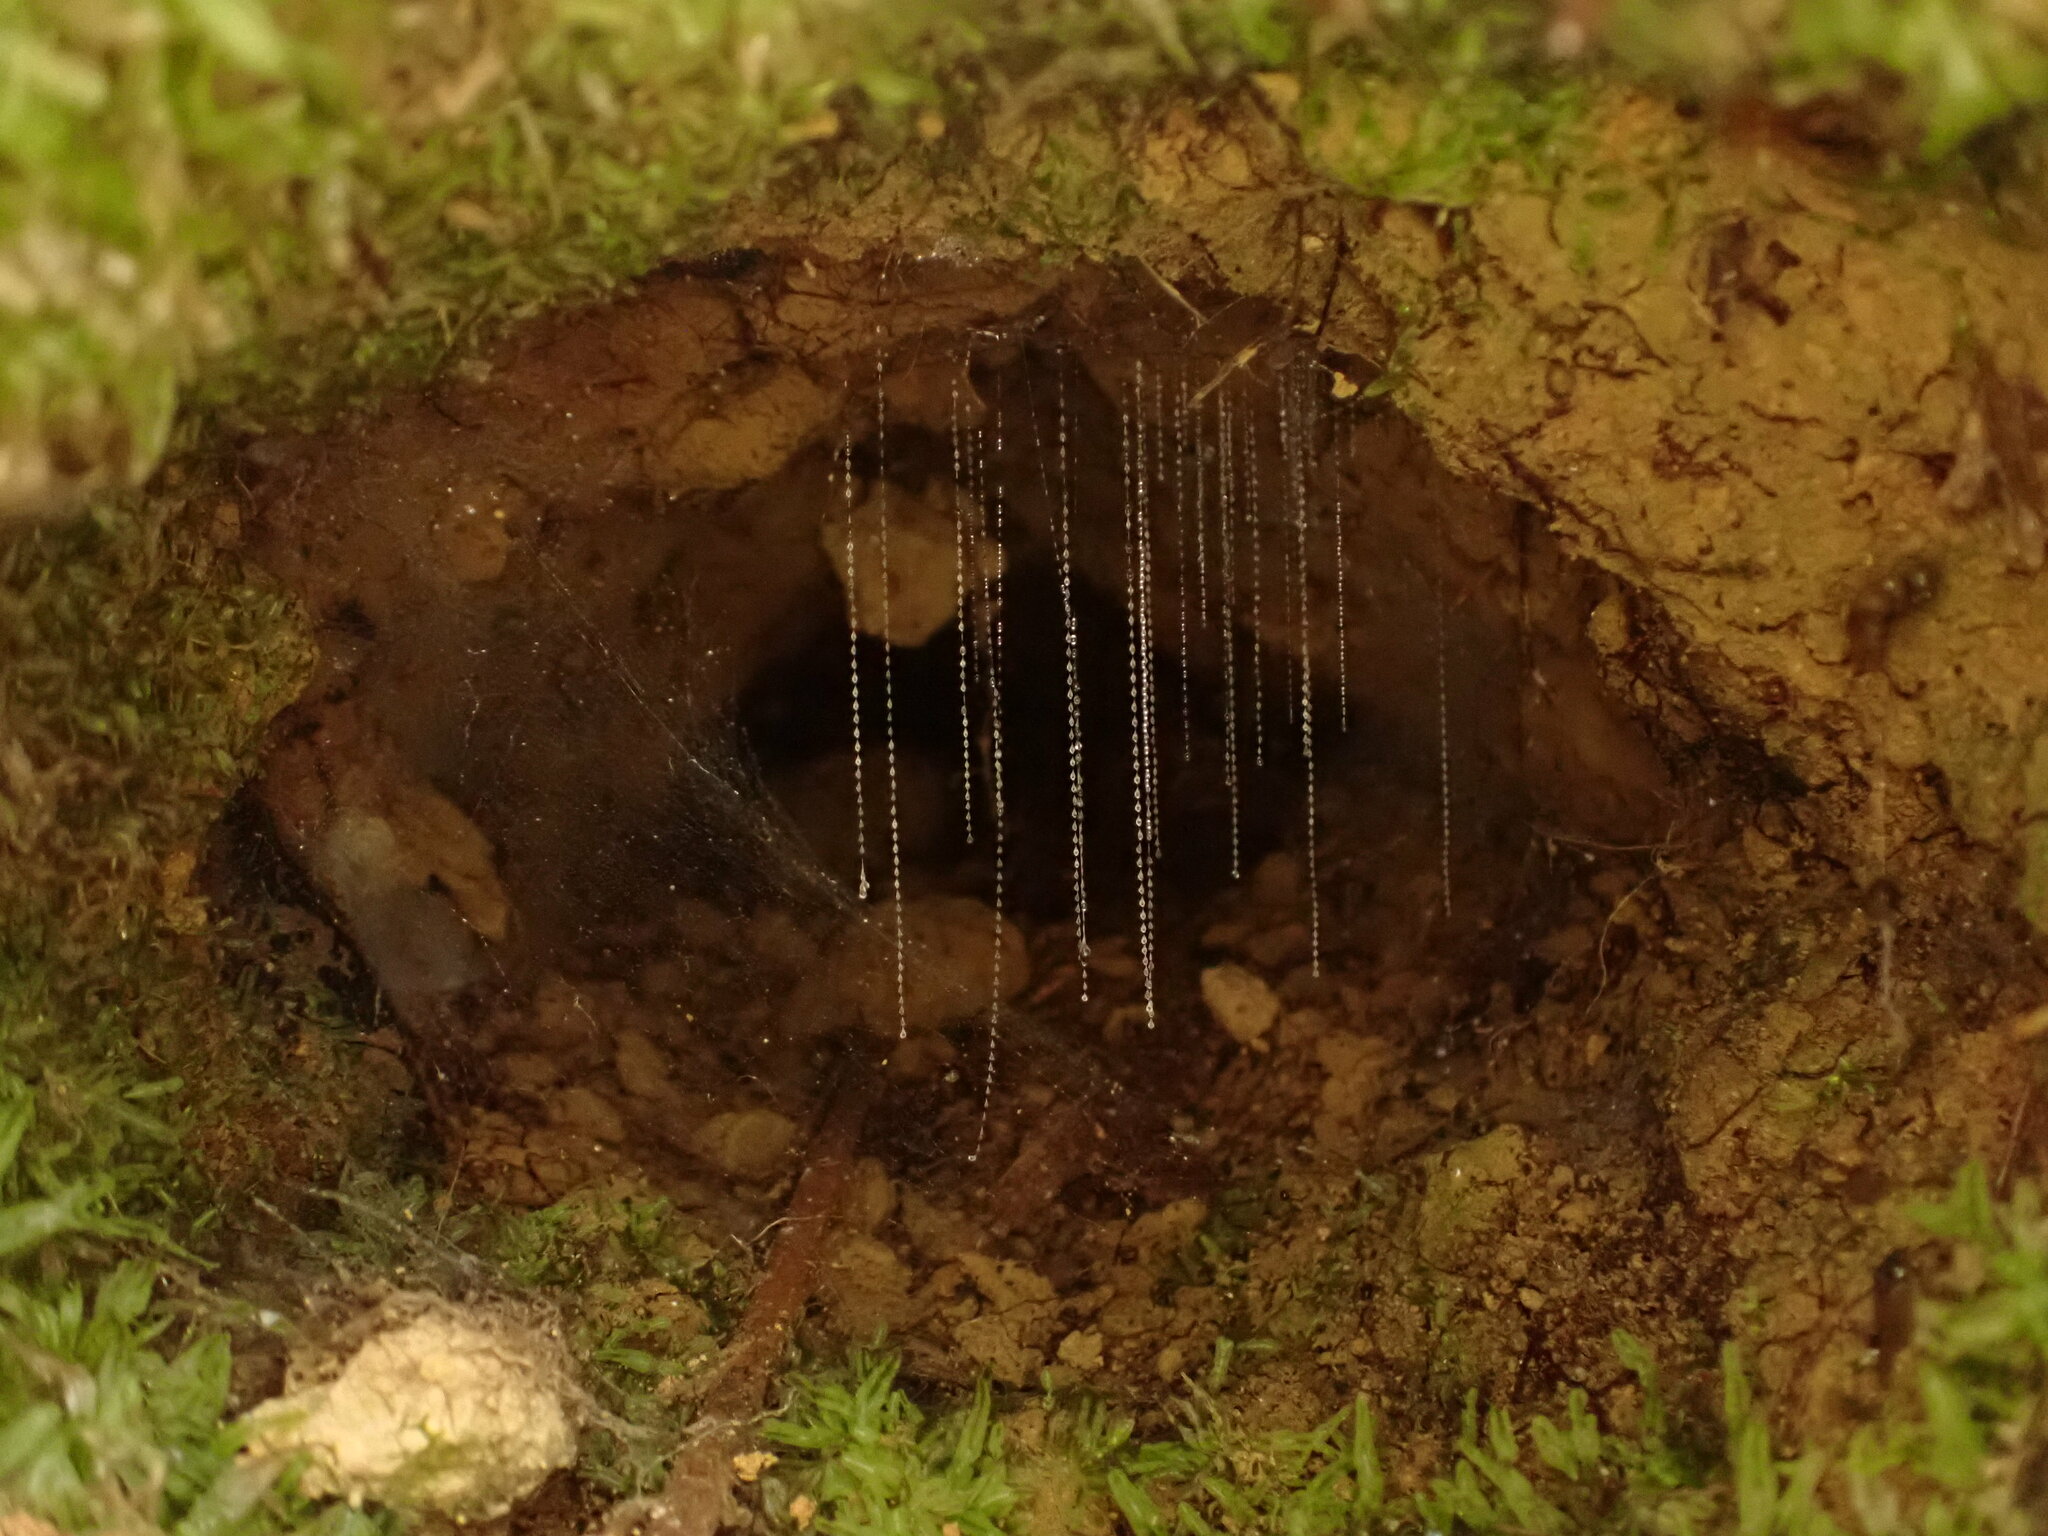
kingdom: Animalia
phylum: Arthropoda
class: Insecta
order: Diptera
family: Keroplatidae
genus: Arachnocampa
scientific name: Arachnocampa luminosa
